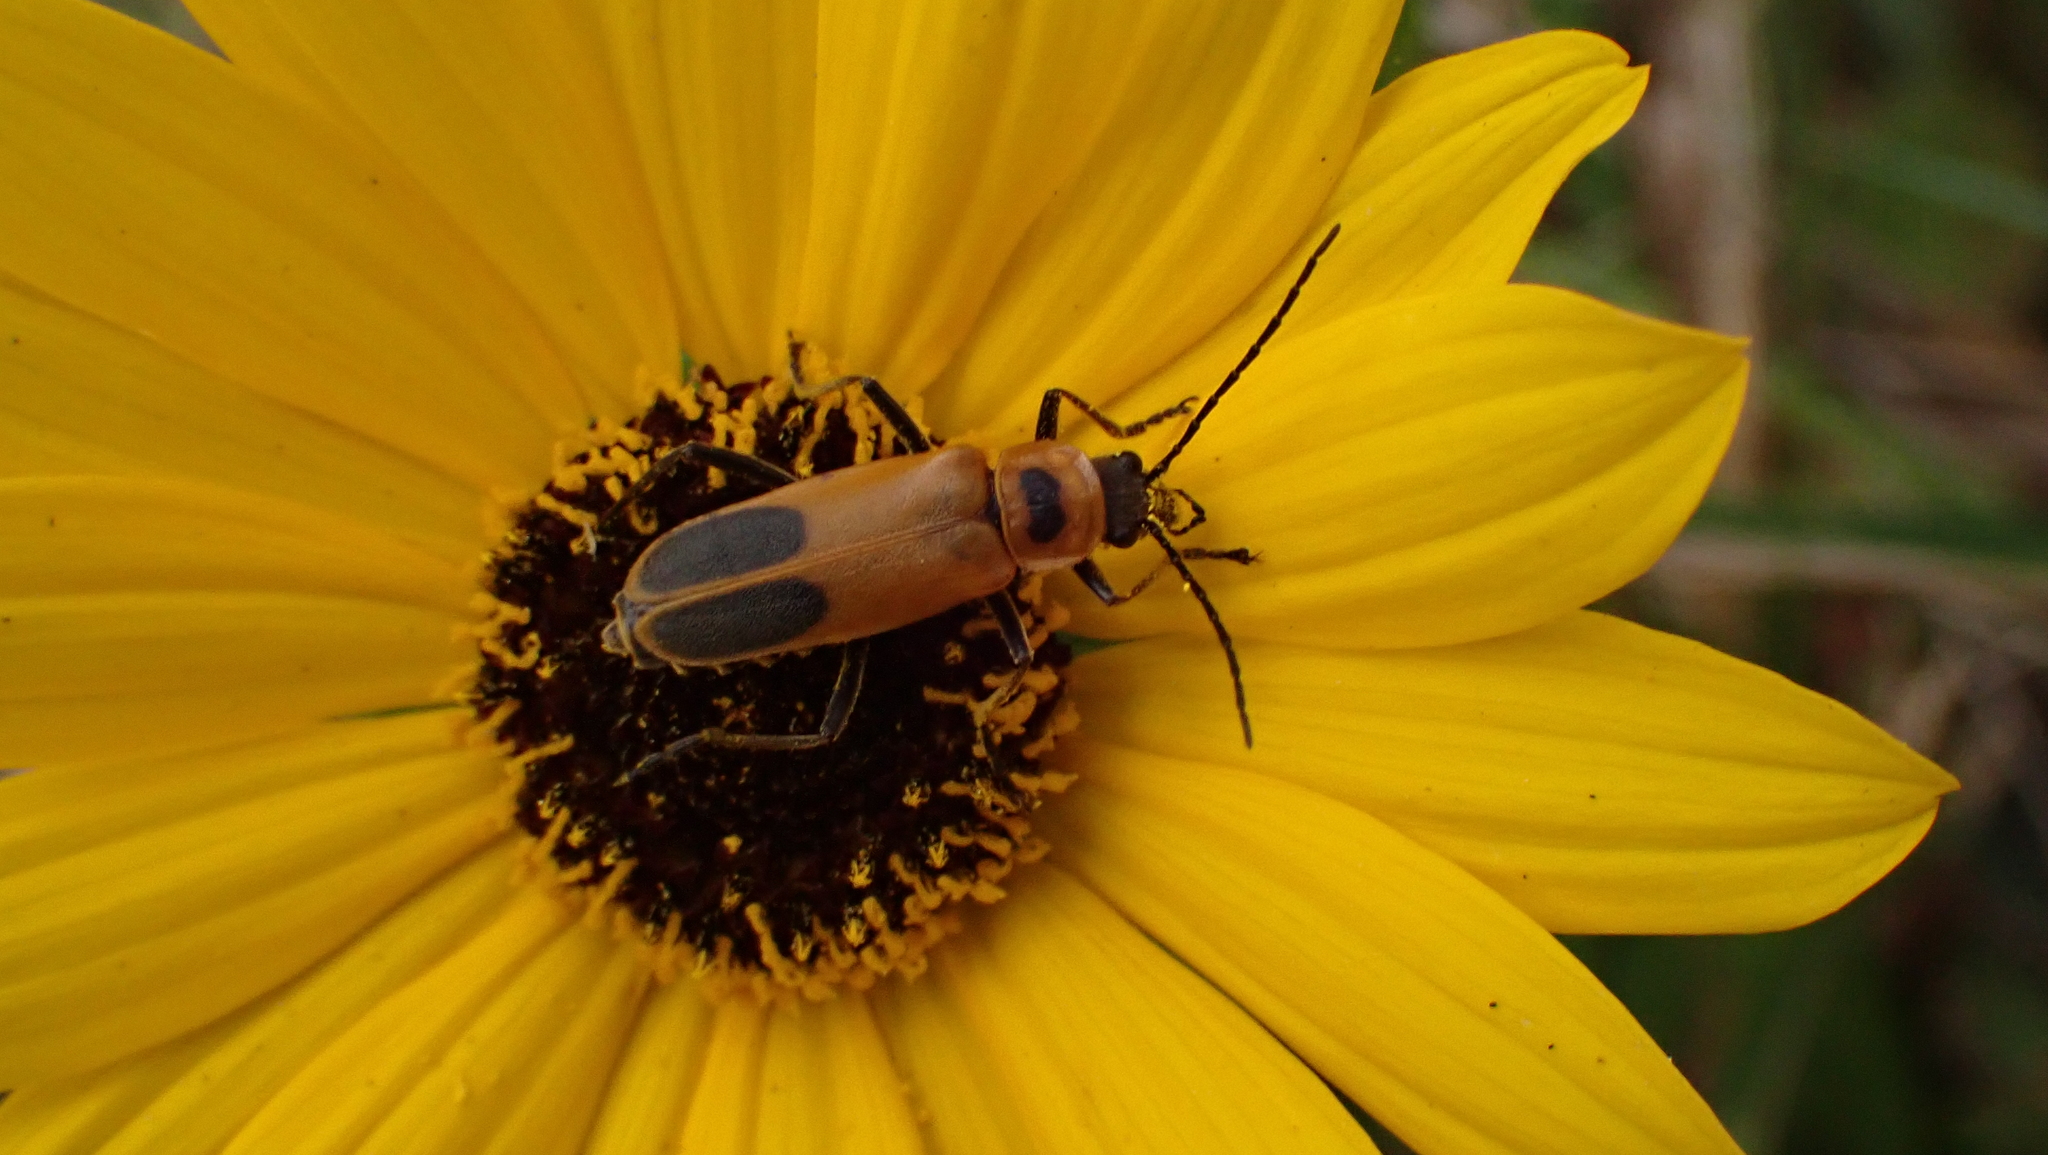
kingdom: Animalia
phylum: Arthropoda
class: Insecta
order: Coleoptera
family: Cantharidae
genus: Chauliognathus
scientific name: Chauliognathus pensylvanicus
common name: Goldenrod soldier beetle
